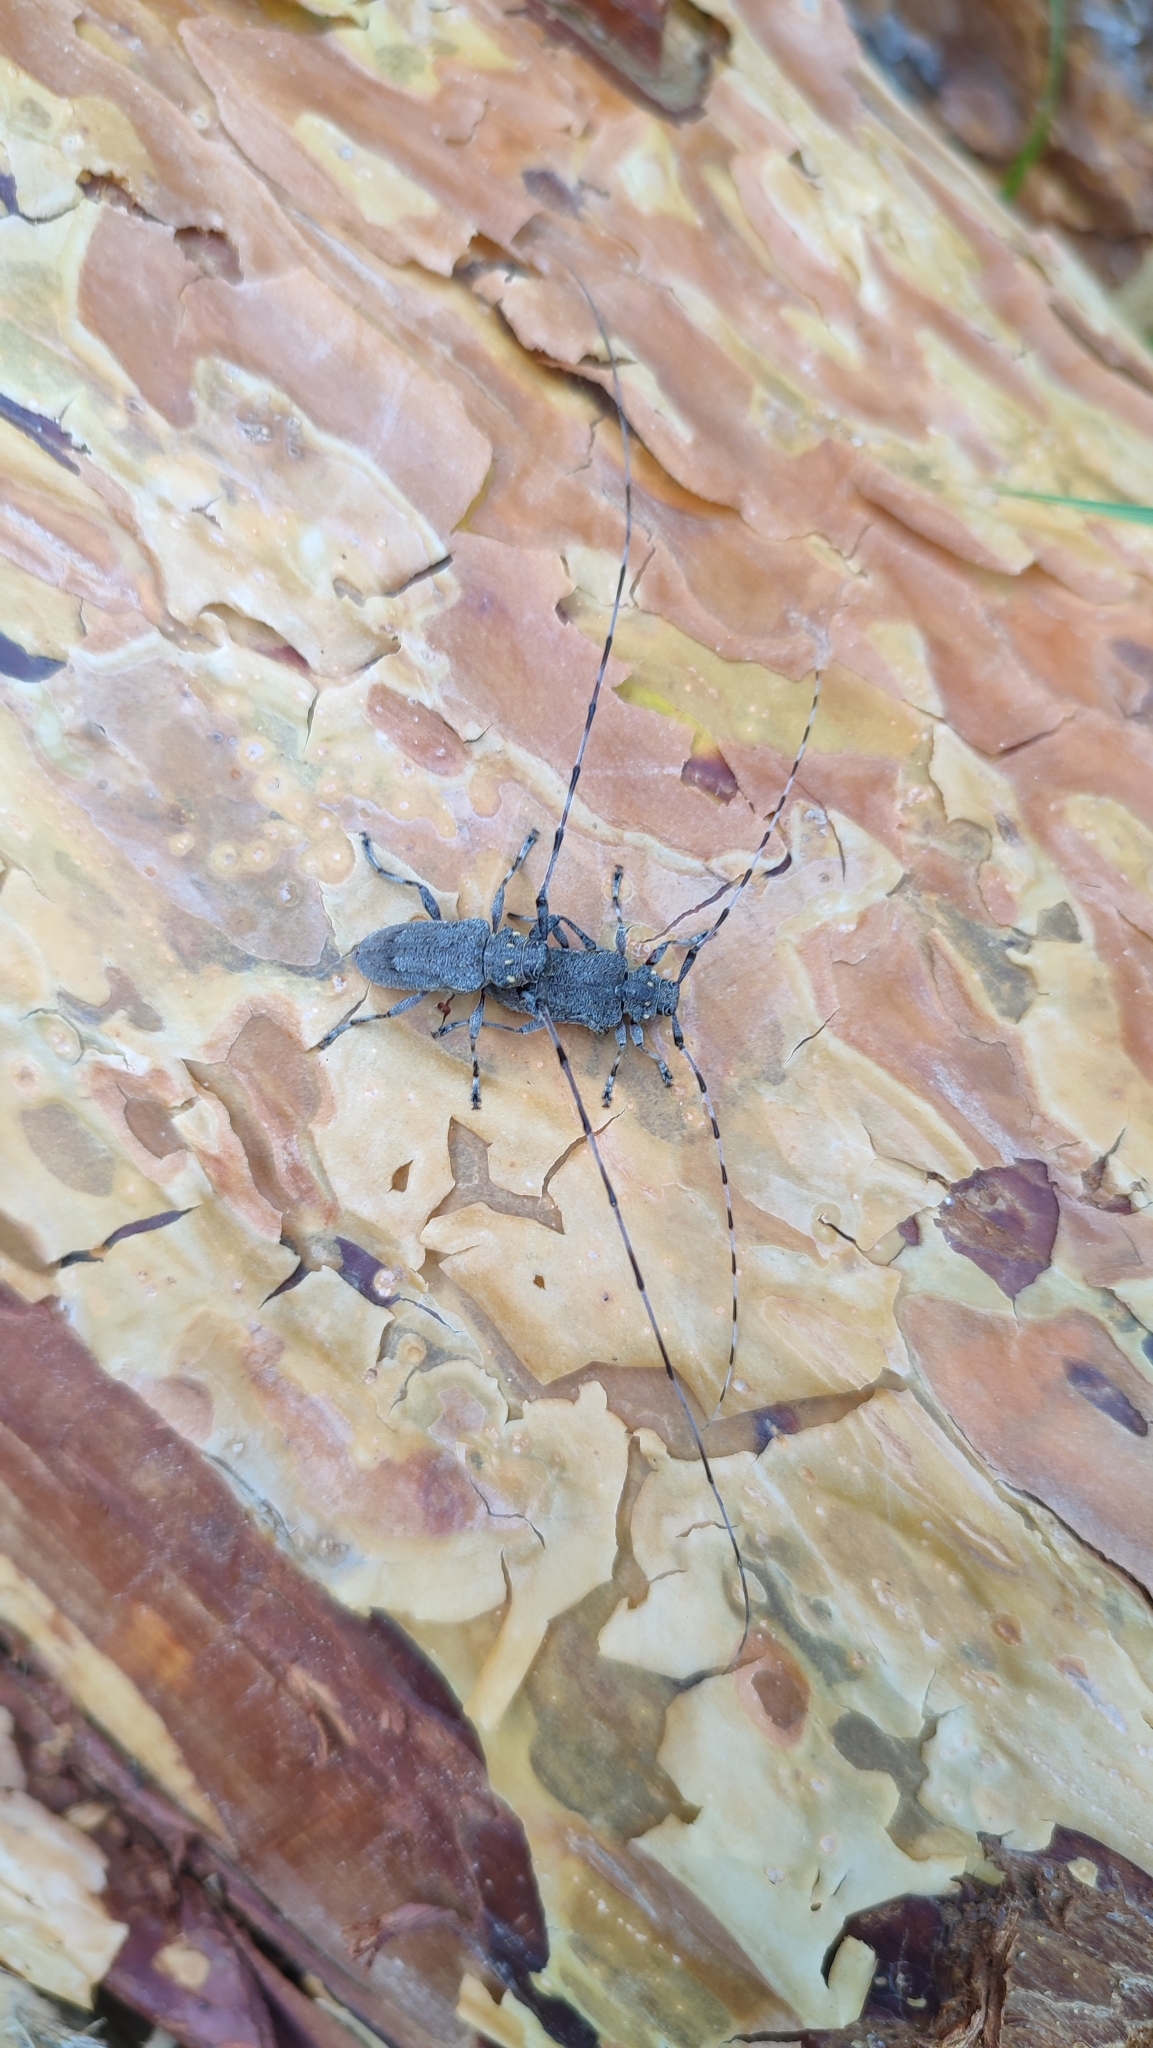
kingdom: Animalia
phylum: Arthropoda
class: Insecta
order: Coleoptera
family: Cerambycidae
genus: Acanthocinus
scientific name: Acanthocinus aedilis
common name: Timberman beetle
